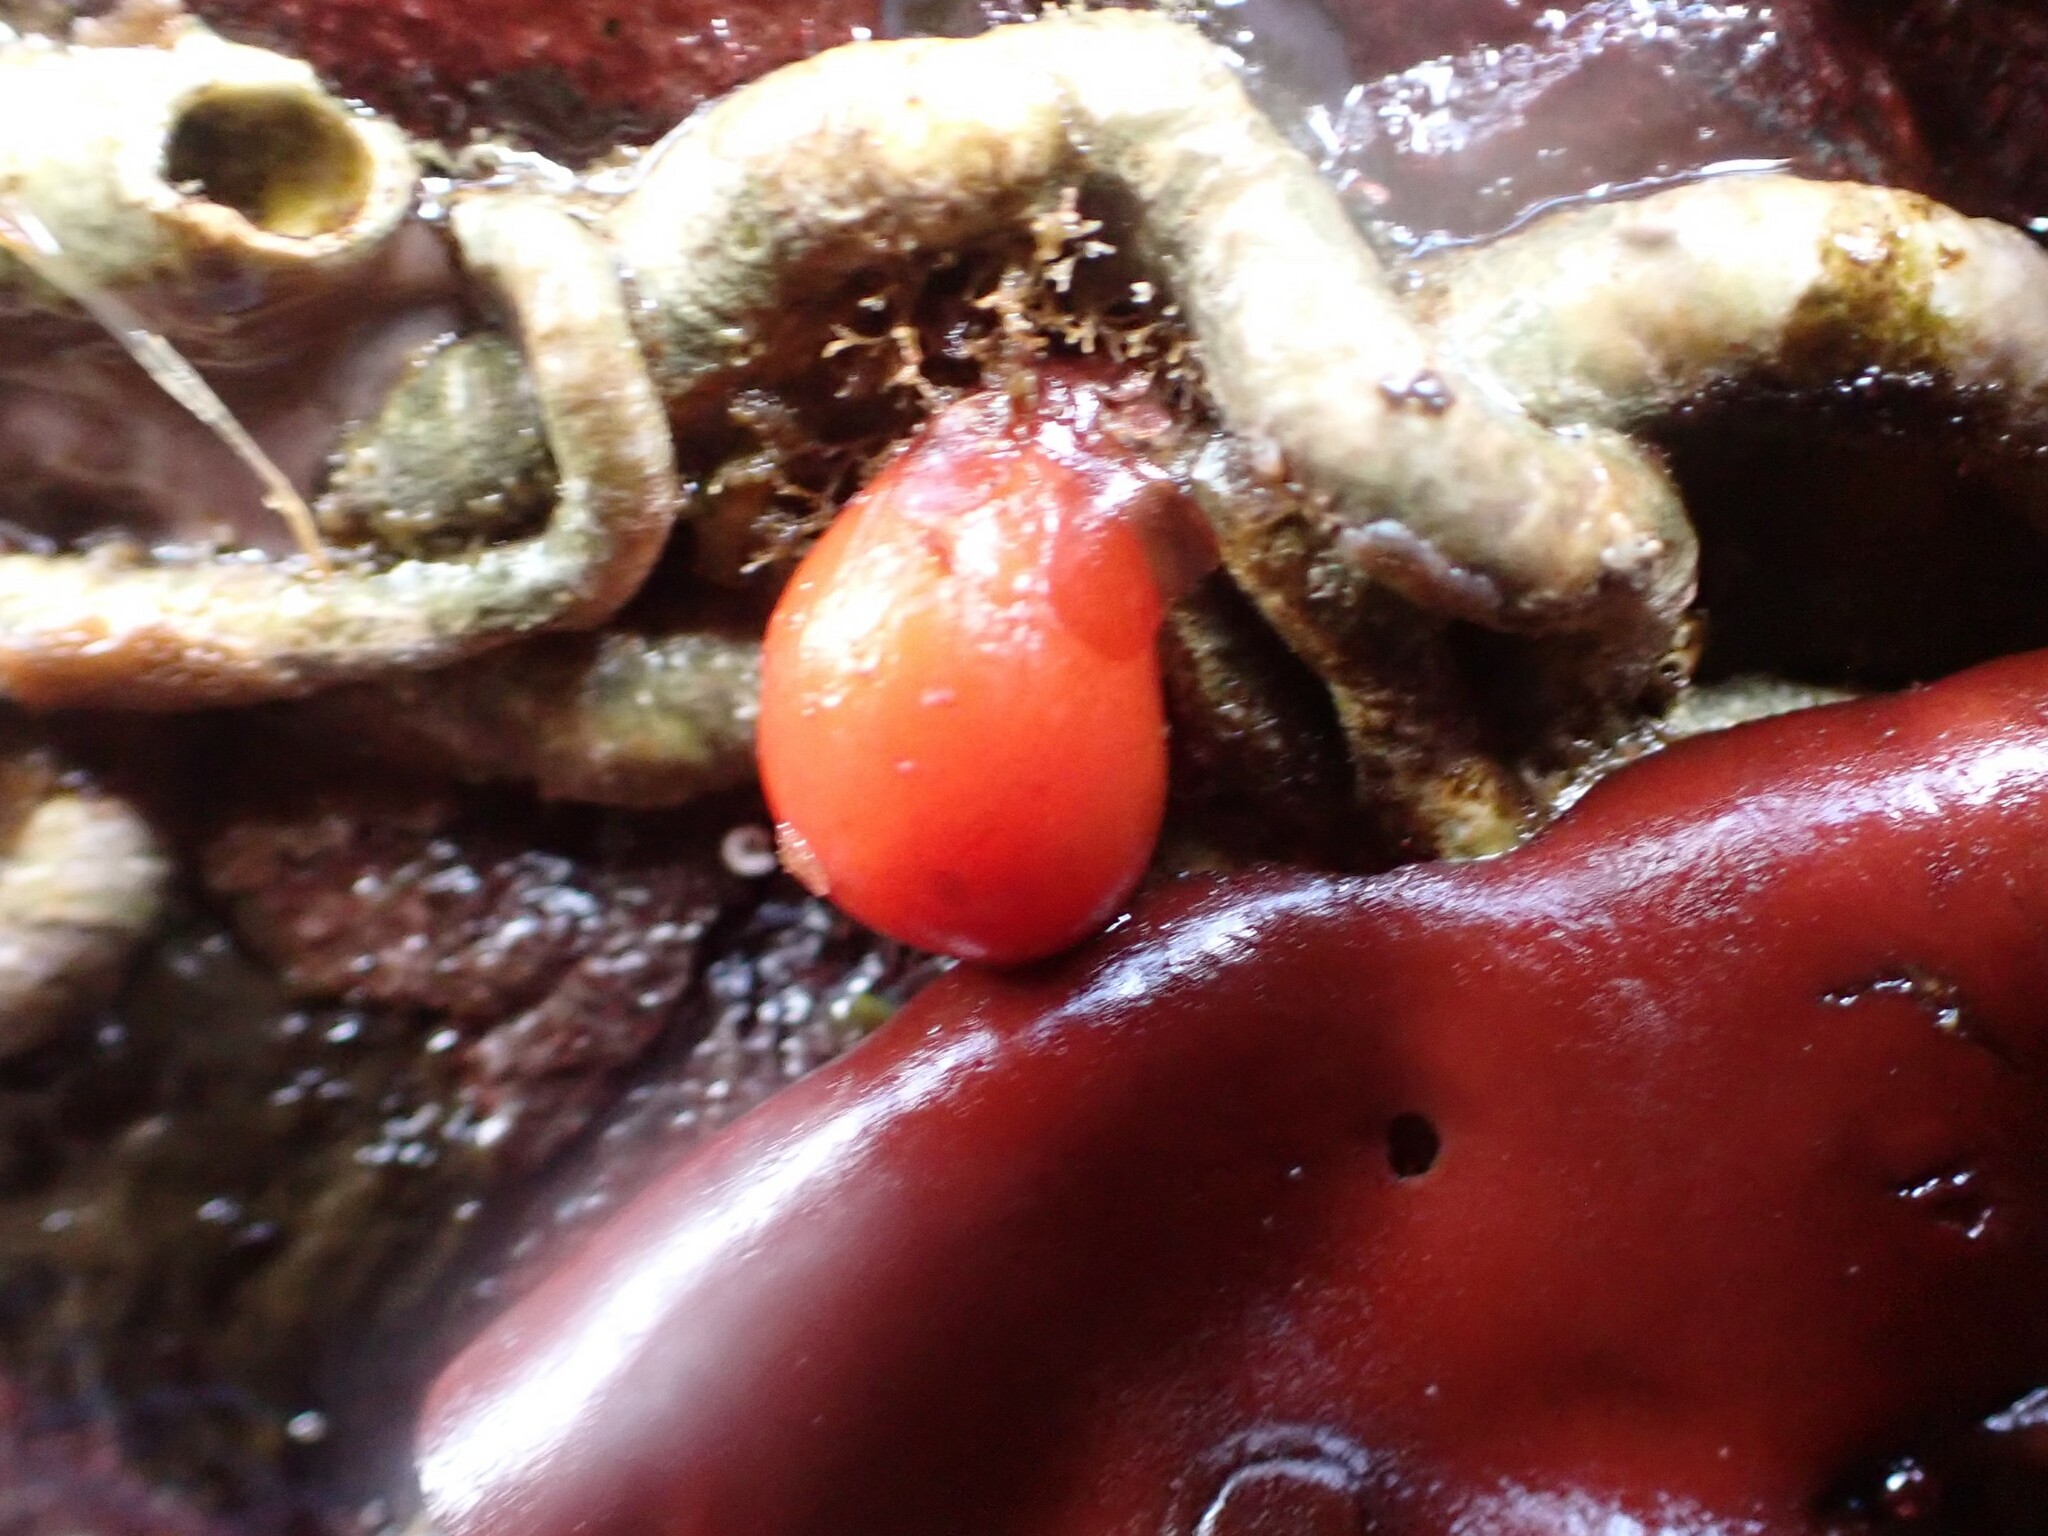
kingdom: Animalia
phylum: Chordata
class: Ascidiacea
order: Stolidobranchia
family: Styelidae
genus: Cnemidocarpa
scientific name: Cnemidocarpa finmarkiensis
